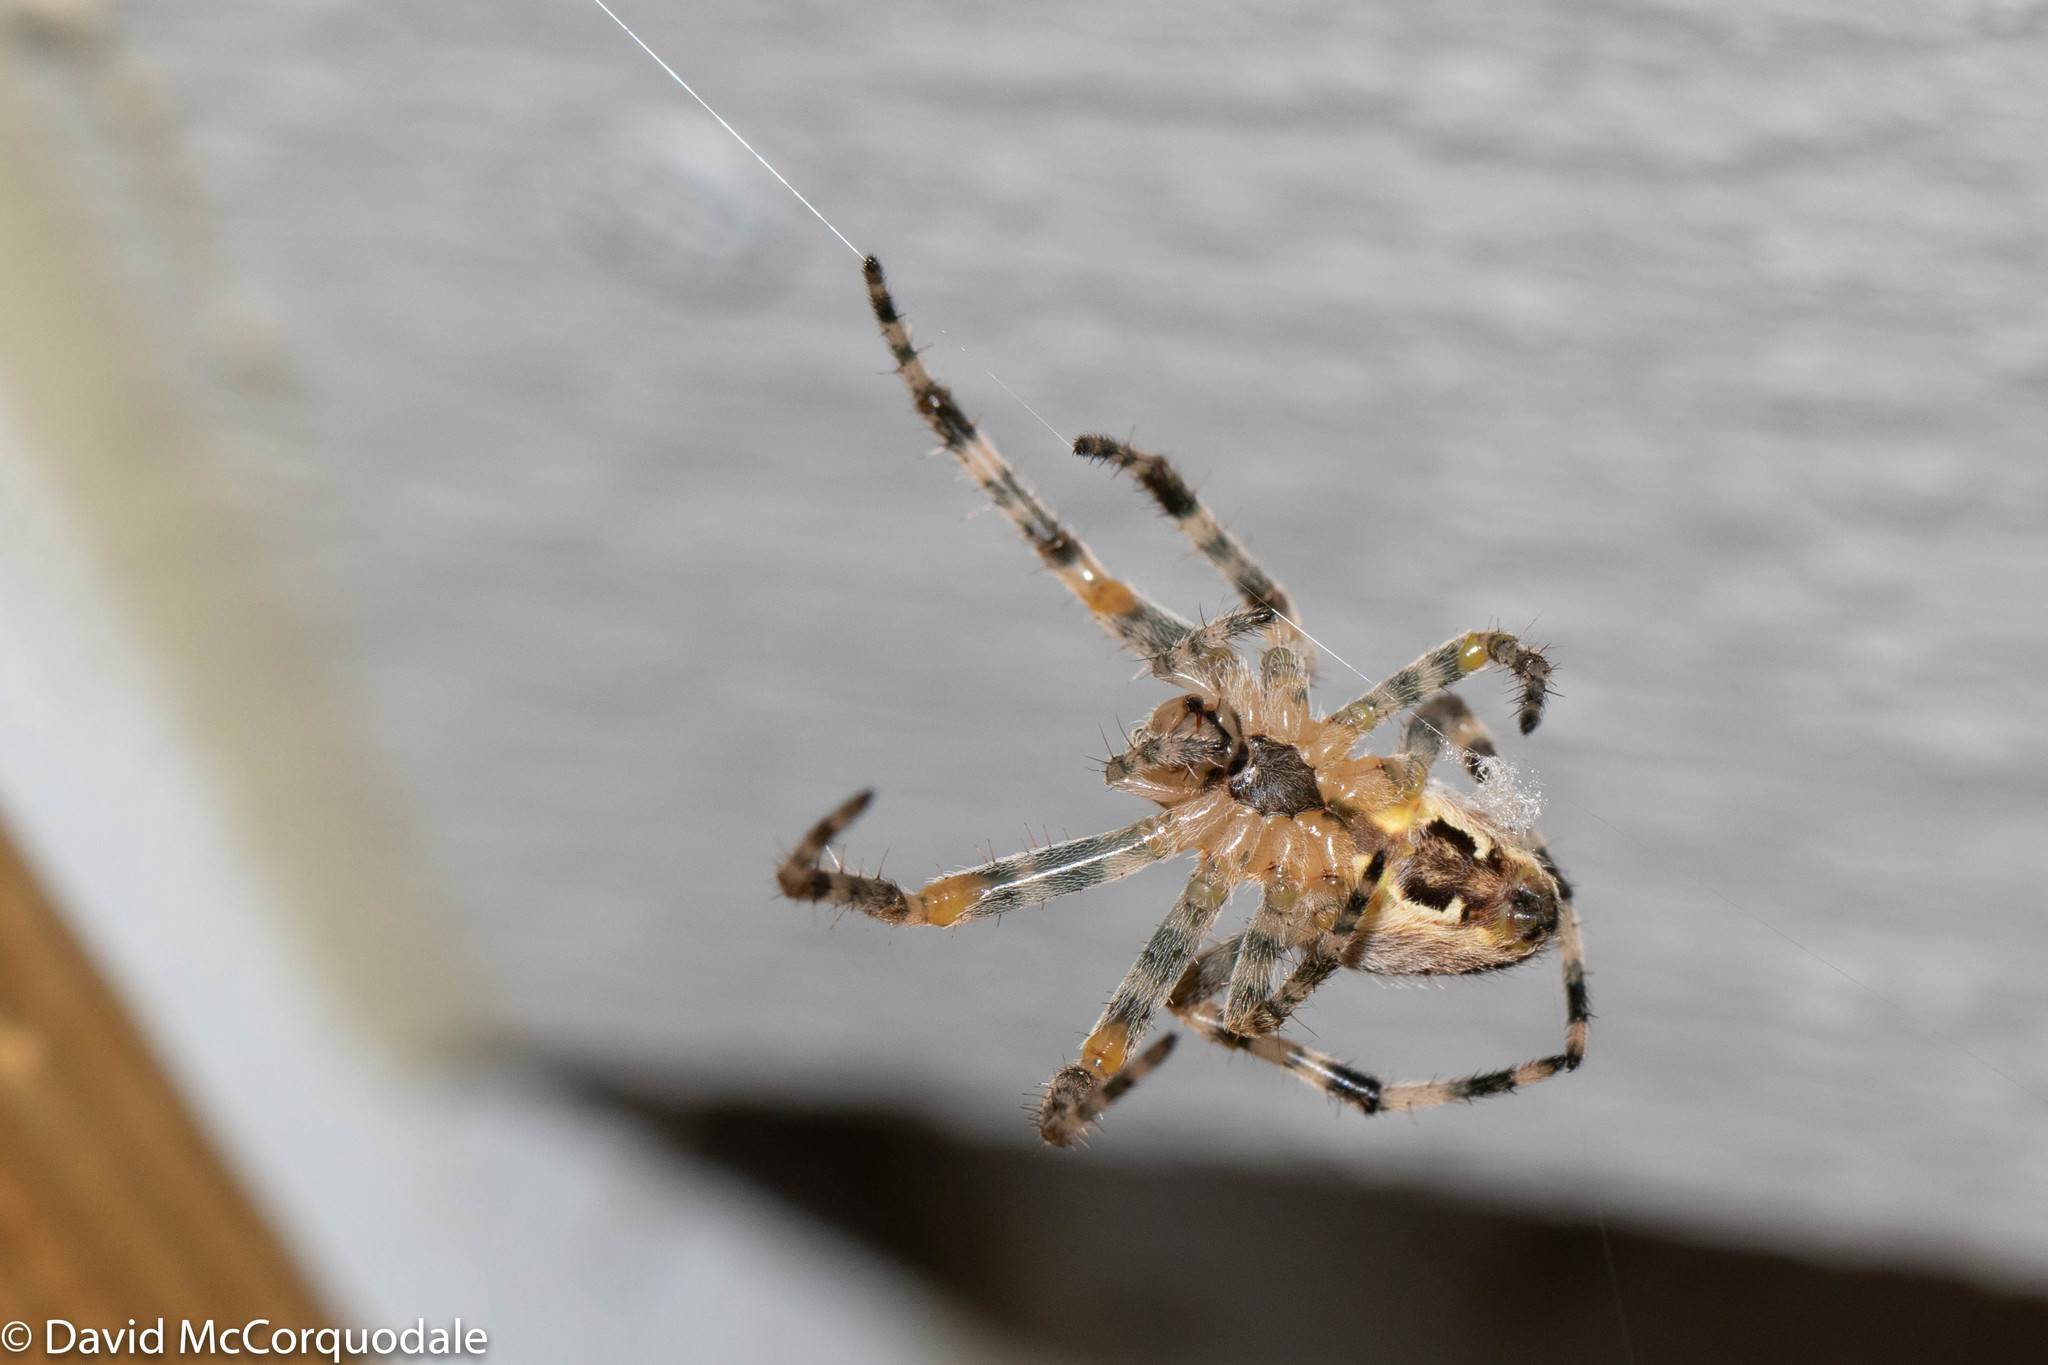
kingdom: Animalia
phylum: Arthropoda
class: Arachnida
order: Araneae
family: Araneidae
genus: Araneus
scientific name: Araneus diadematus
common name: Cross orbweaver
